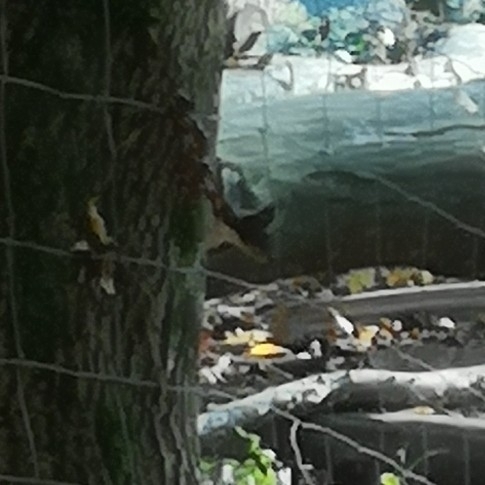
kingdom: Animalia
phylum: Chordata
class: Mammalia
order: Rodentia
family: Sciuridae
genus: Sciurus
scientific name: Sciurus vulgaris
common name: Eurasian red squirrel
